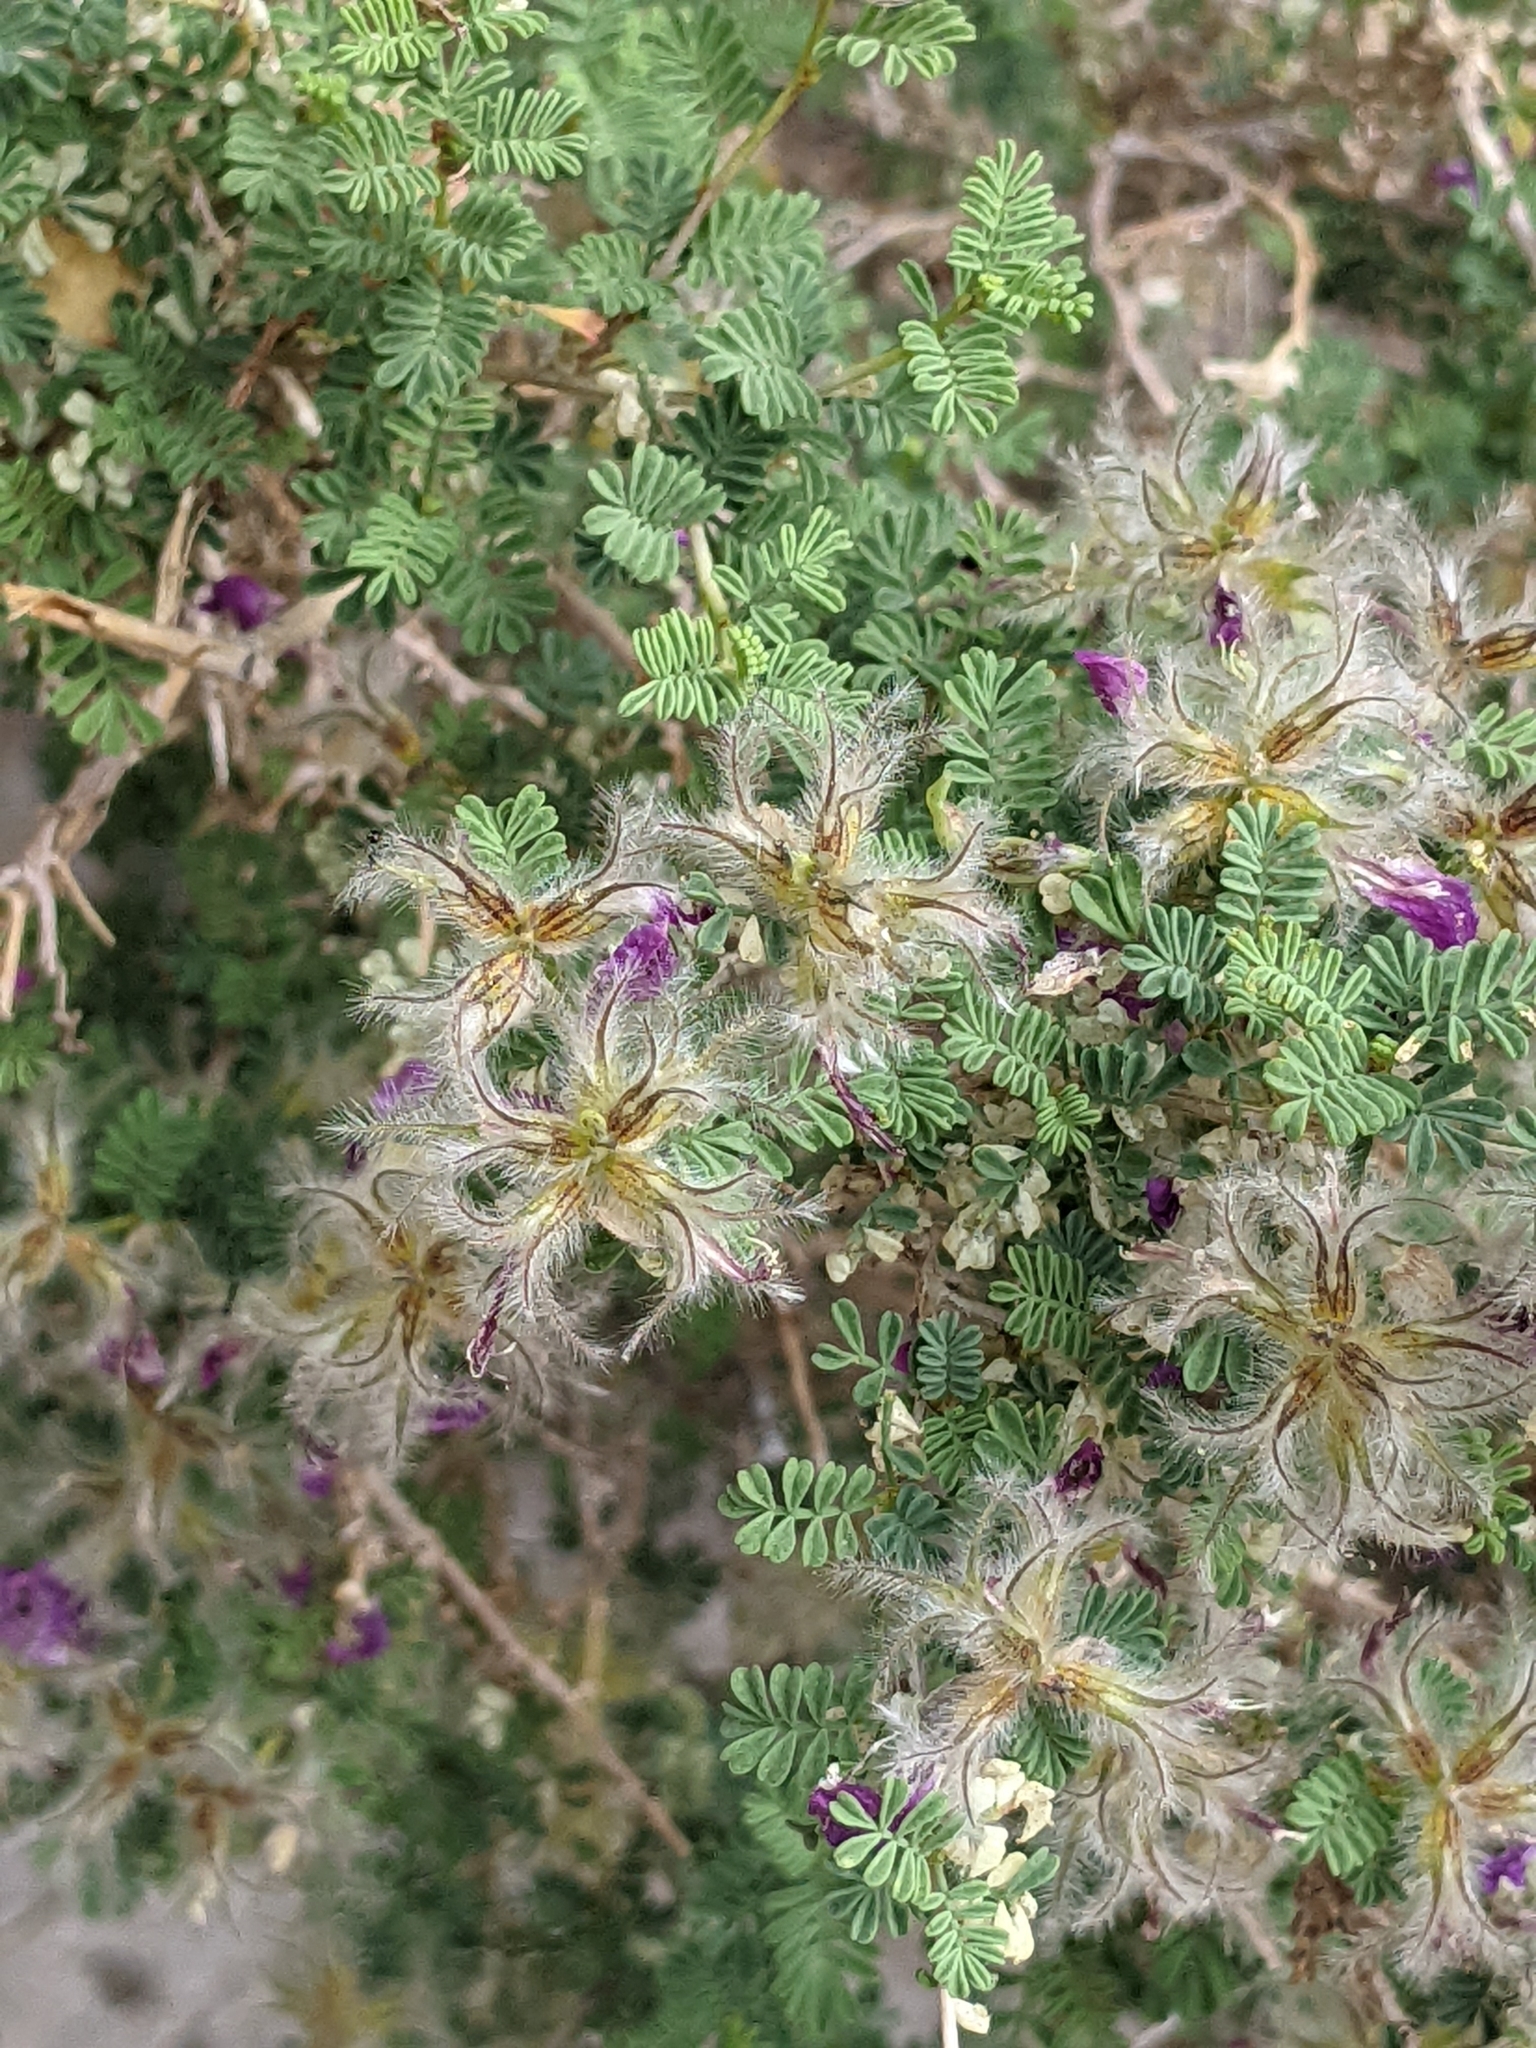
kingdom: Plantae
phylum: Tracheophyta
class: Magnoliopsida
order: Fabales
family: Fabaceae
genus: Dalea
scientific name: Dalea formosa
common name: Feather-plume dalea
